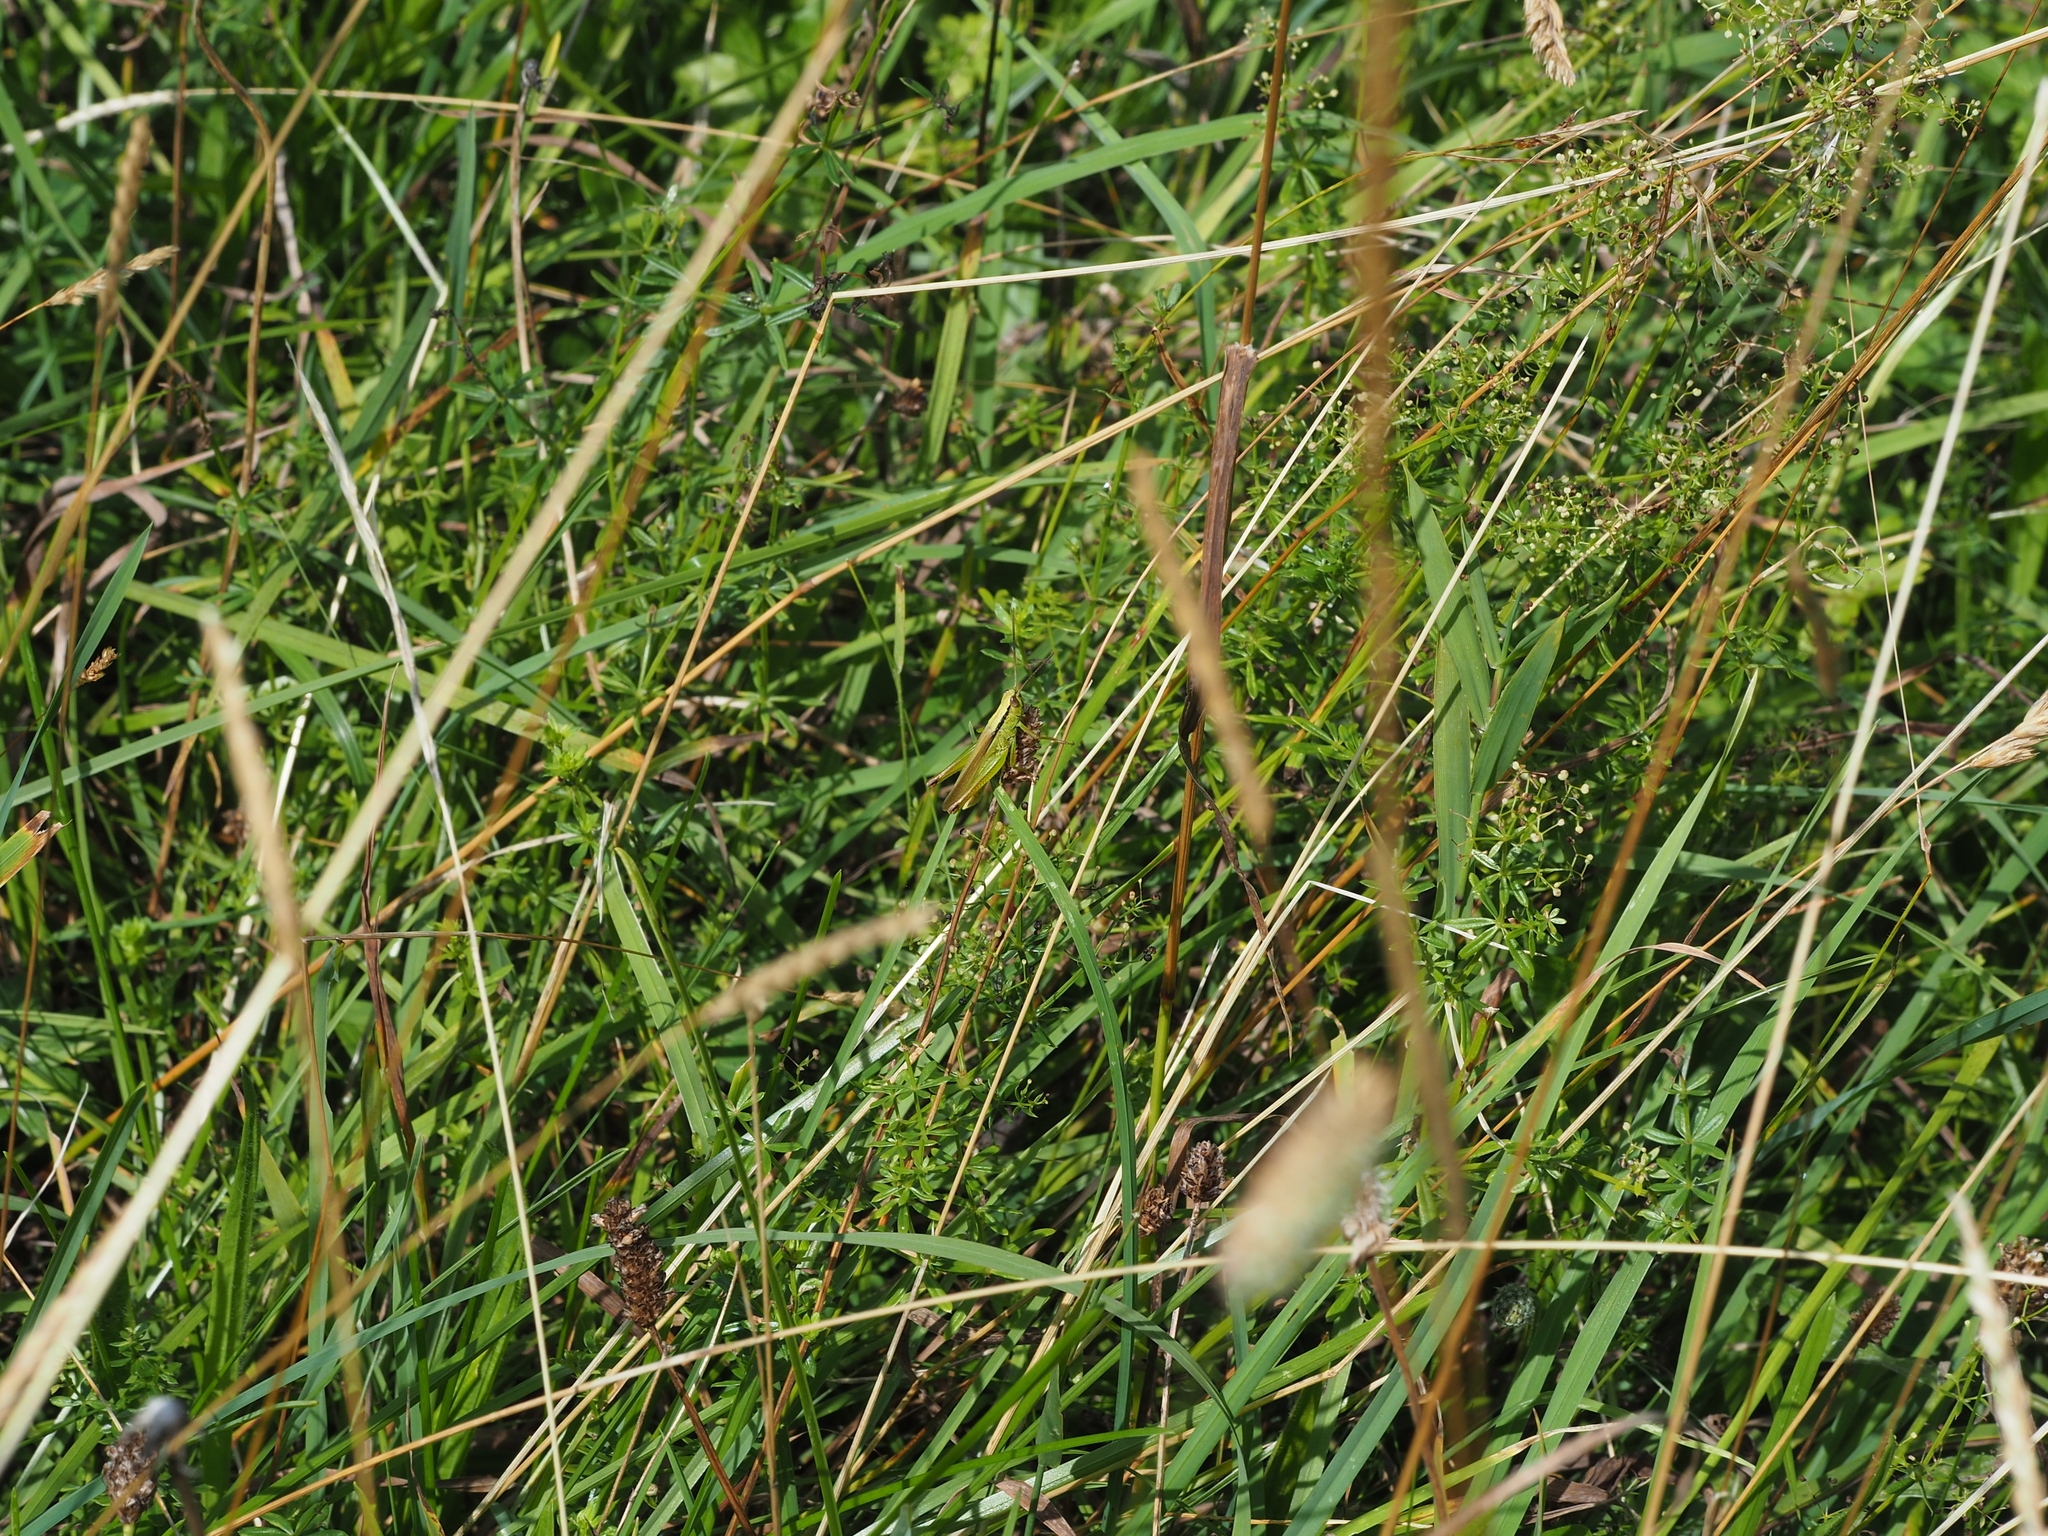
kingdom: Animalia
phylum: Arthropoda
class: Insecta
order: Orthoptera
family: Acrididae
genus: Mecostethus
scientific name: Mecostethus parapleurus
